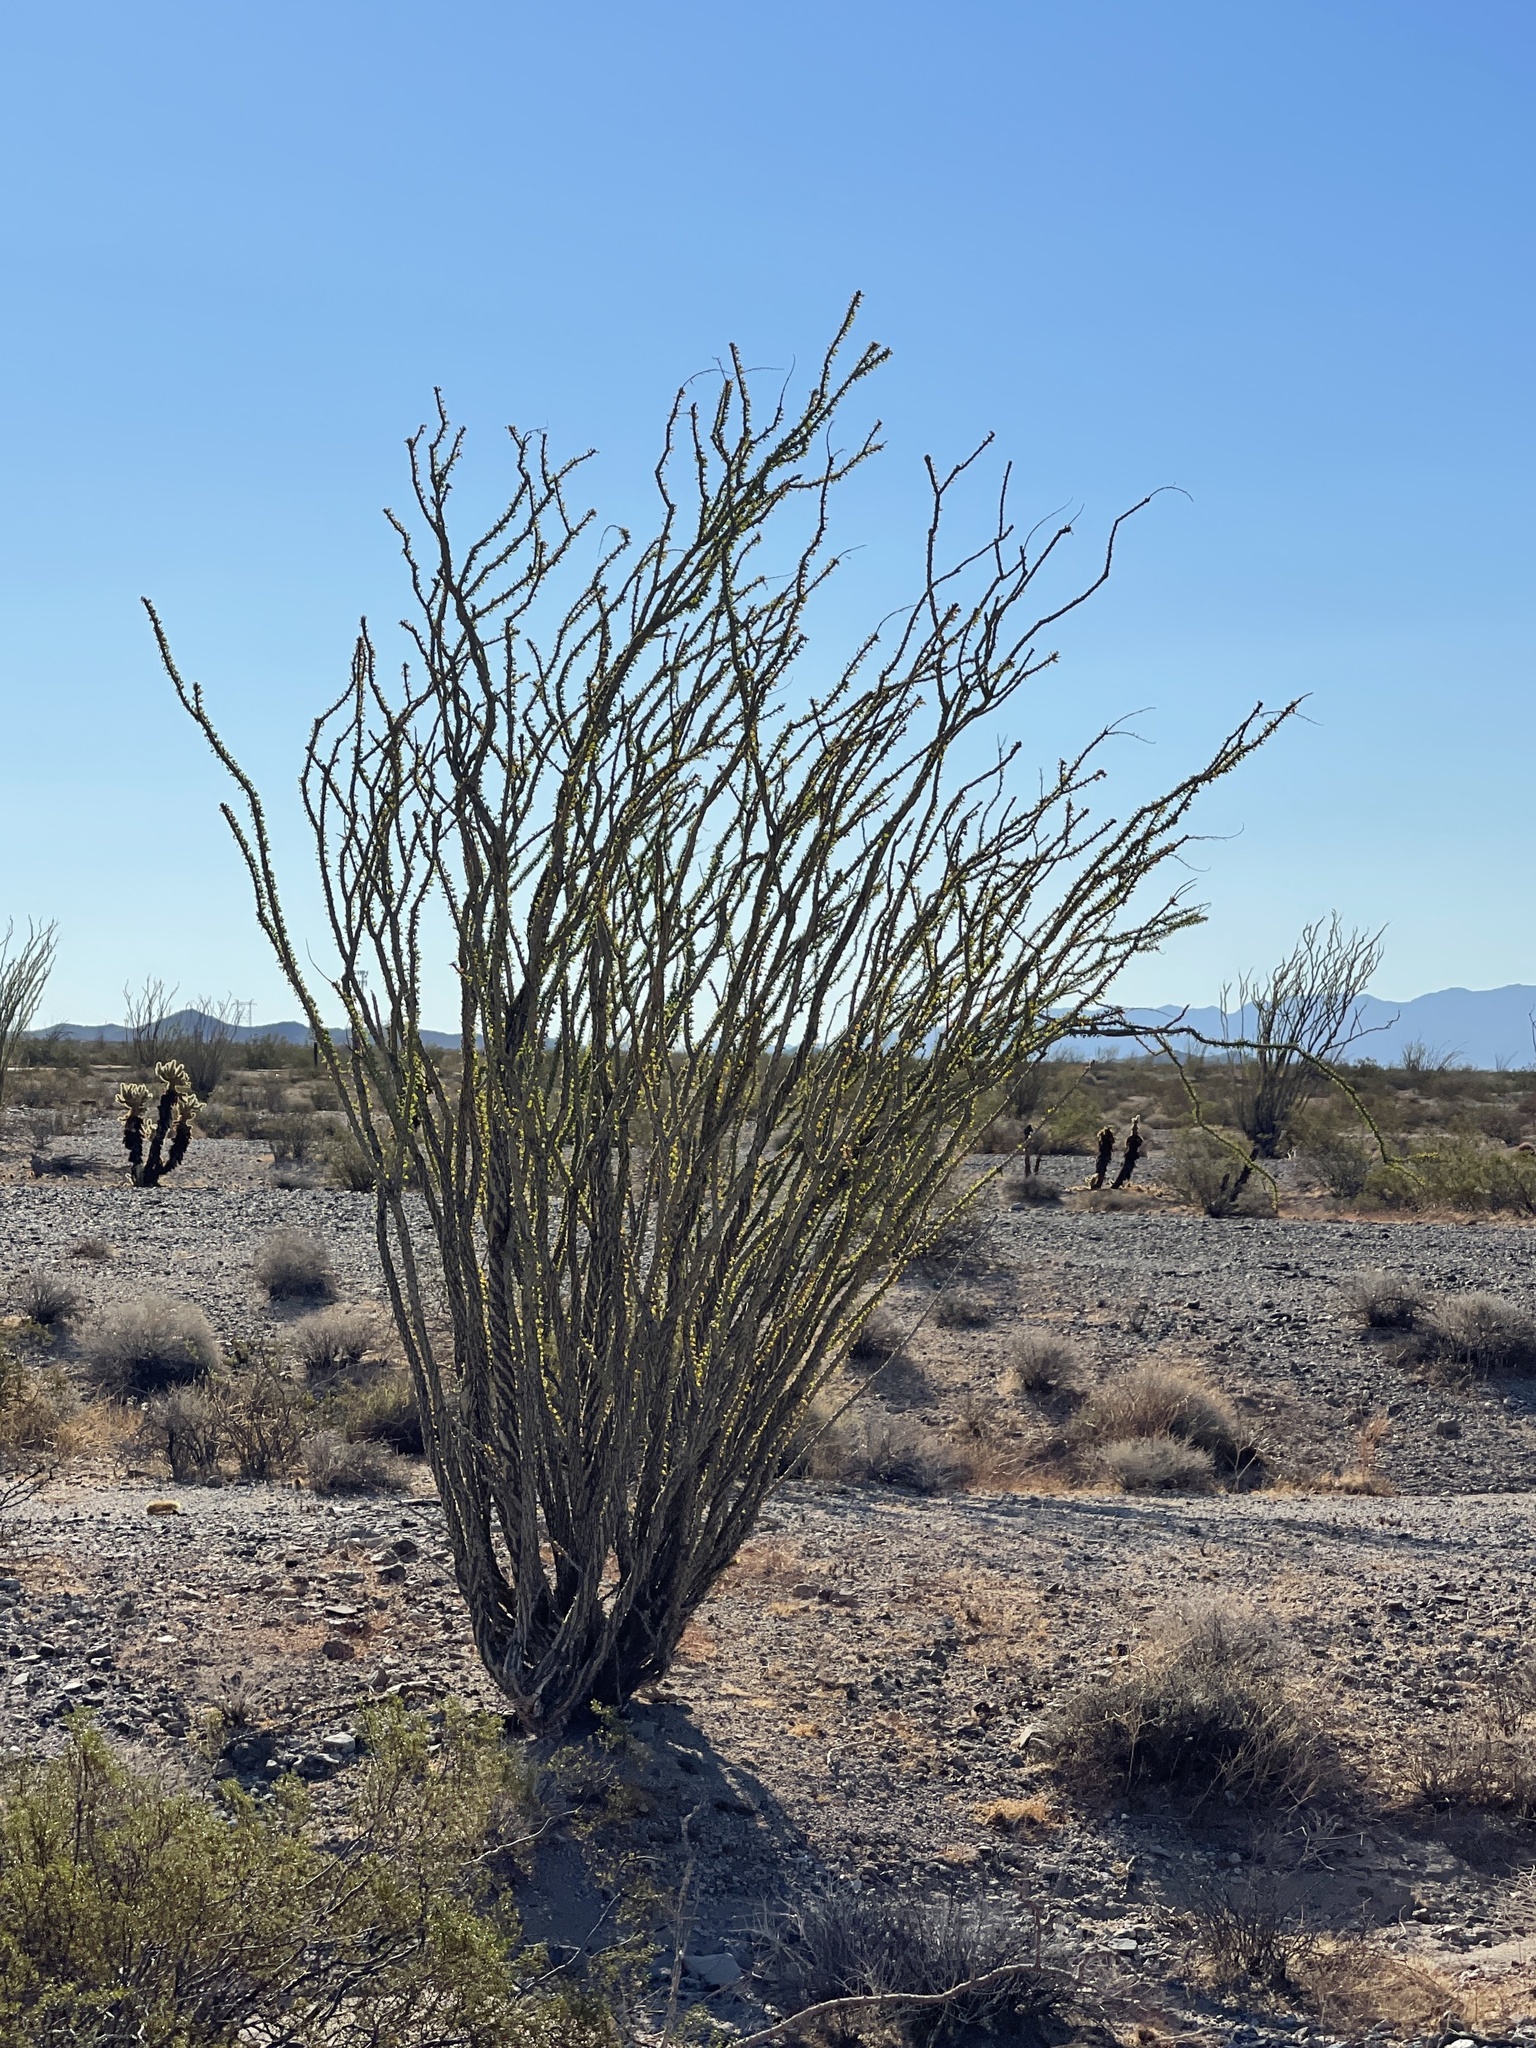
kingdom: Plantae
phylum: Tracheophyta
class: Magnoliopsida
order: Ericales
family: Fouquieriaceae
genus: Fouquieria
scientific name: Fouquieria splendens
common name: Vine-cactus
